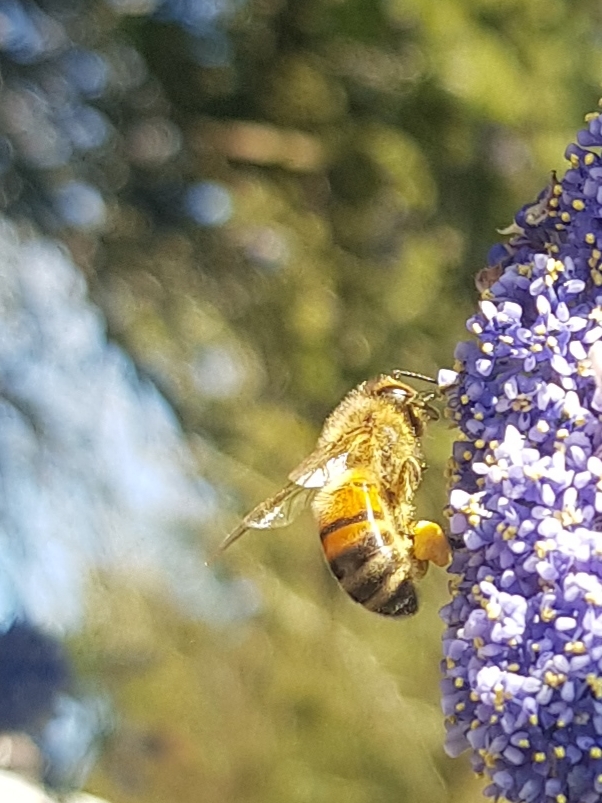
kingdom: Animalia
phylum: Arthropoda
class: Insecta
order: Hymenoptera
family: Apidae
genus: Apis
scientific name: Apis mellifera
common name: Honey bee
